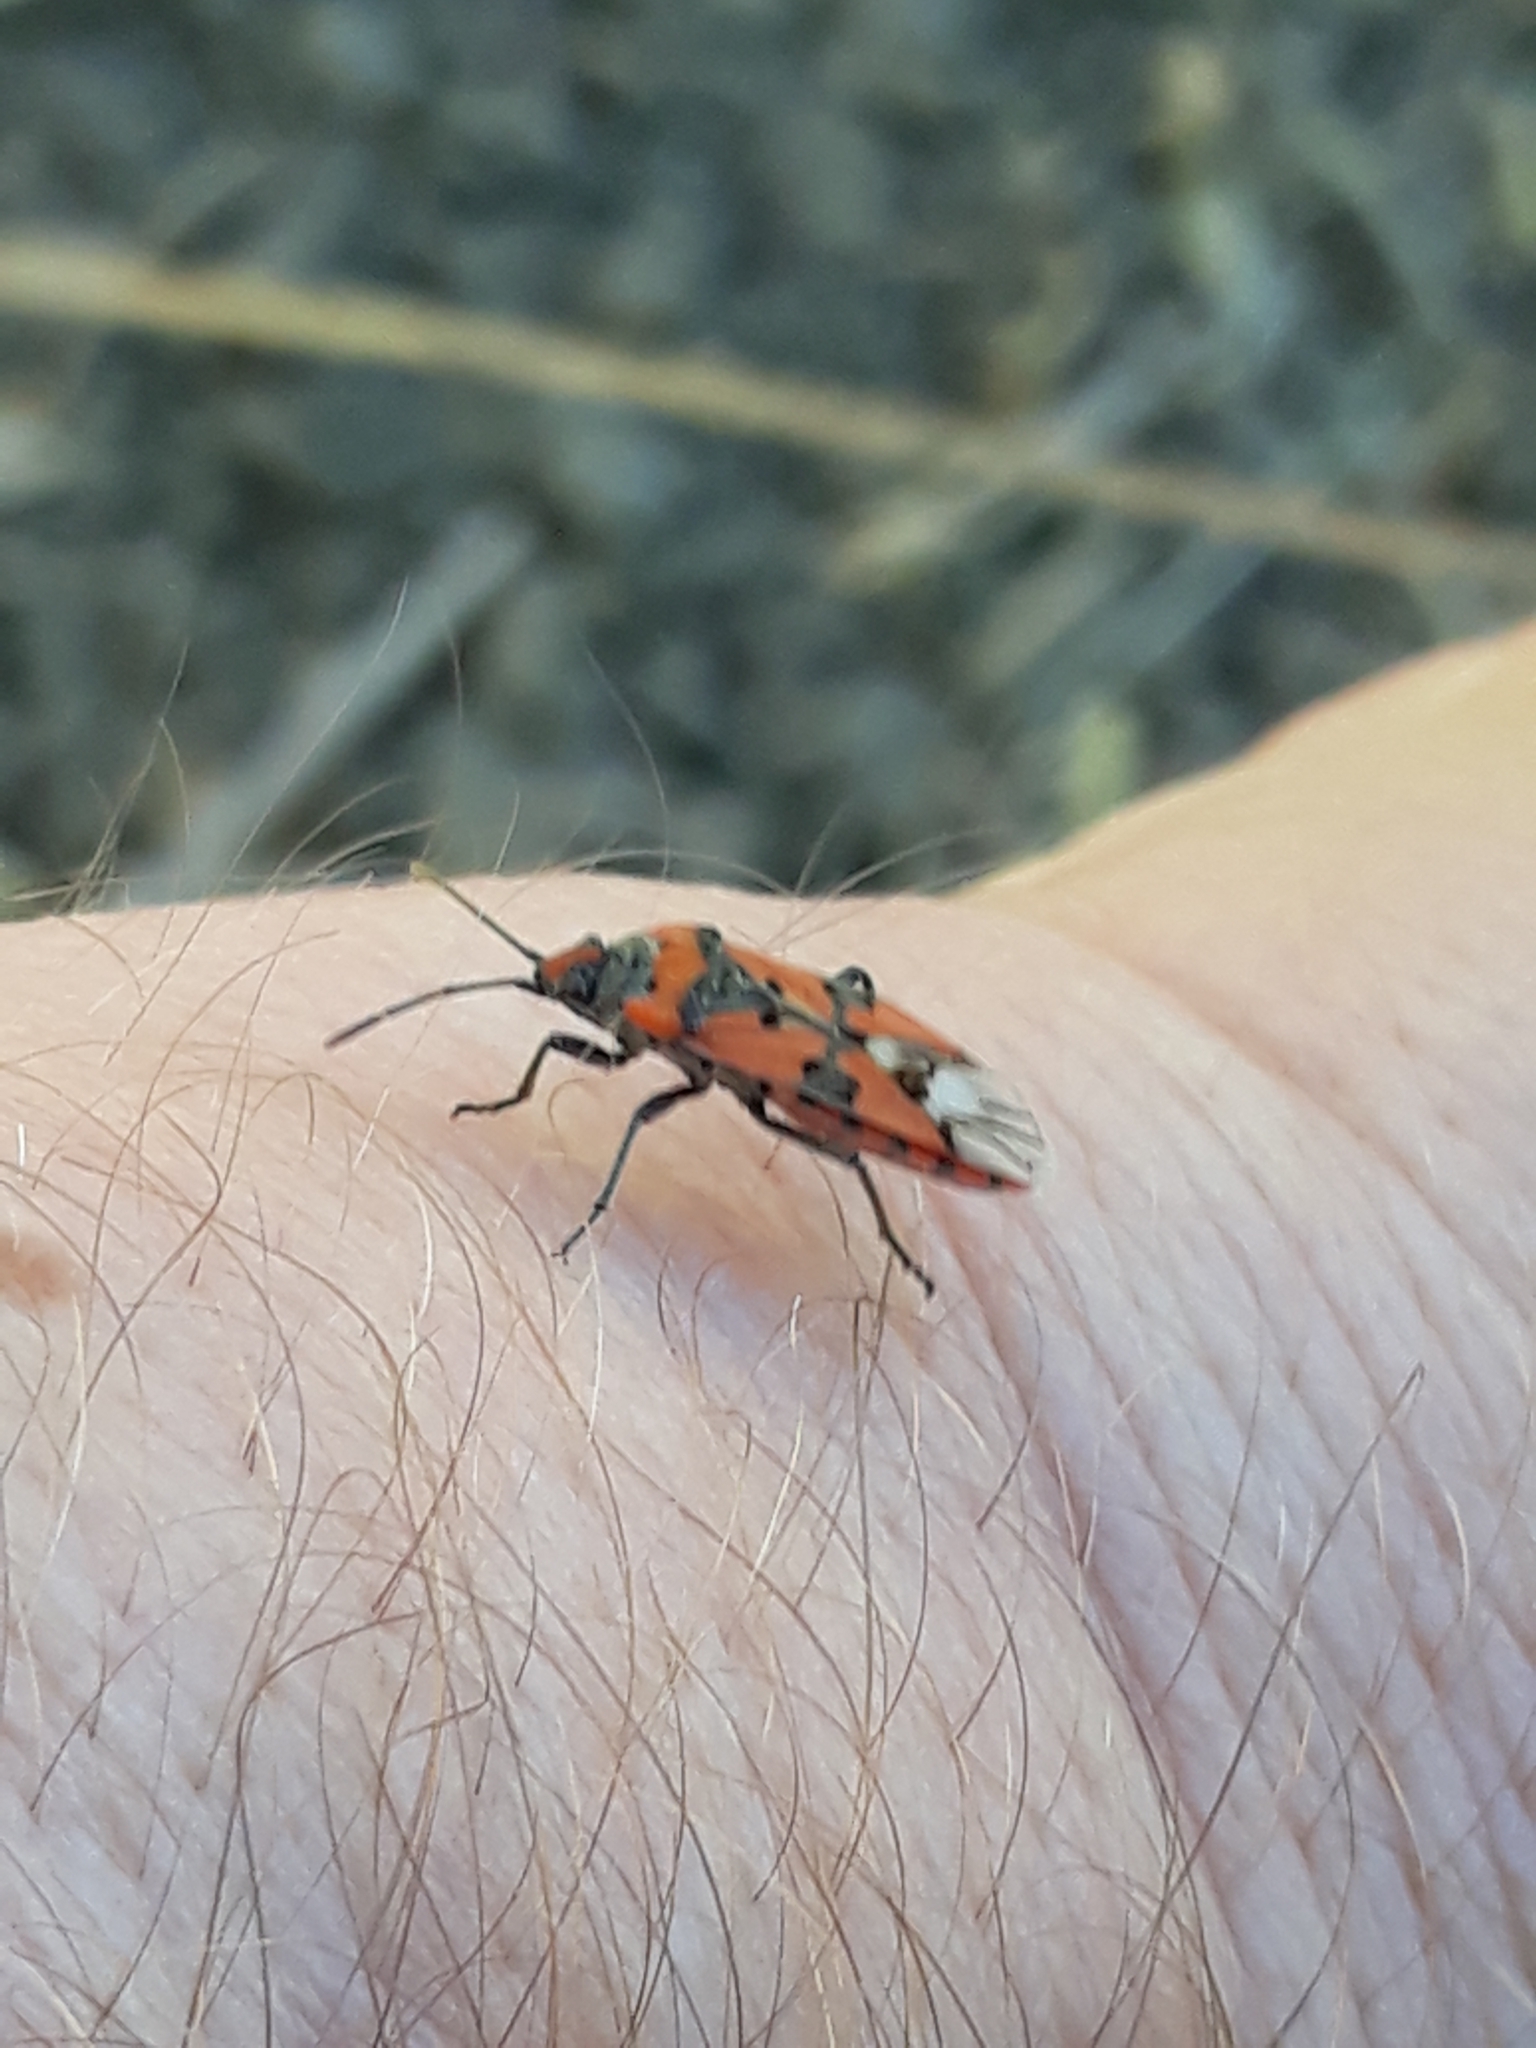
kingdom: Animalia
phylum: Arthropoda
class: Insecta
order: Hemiptera
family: Lygaeidae
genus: Lygaeus
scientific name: Lygaeus equestris
